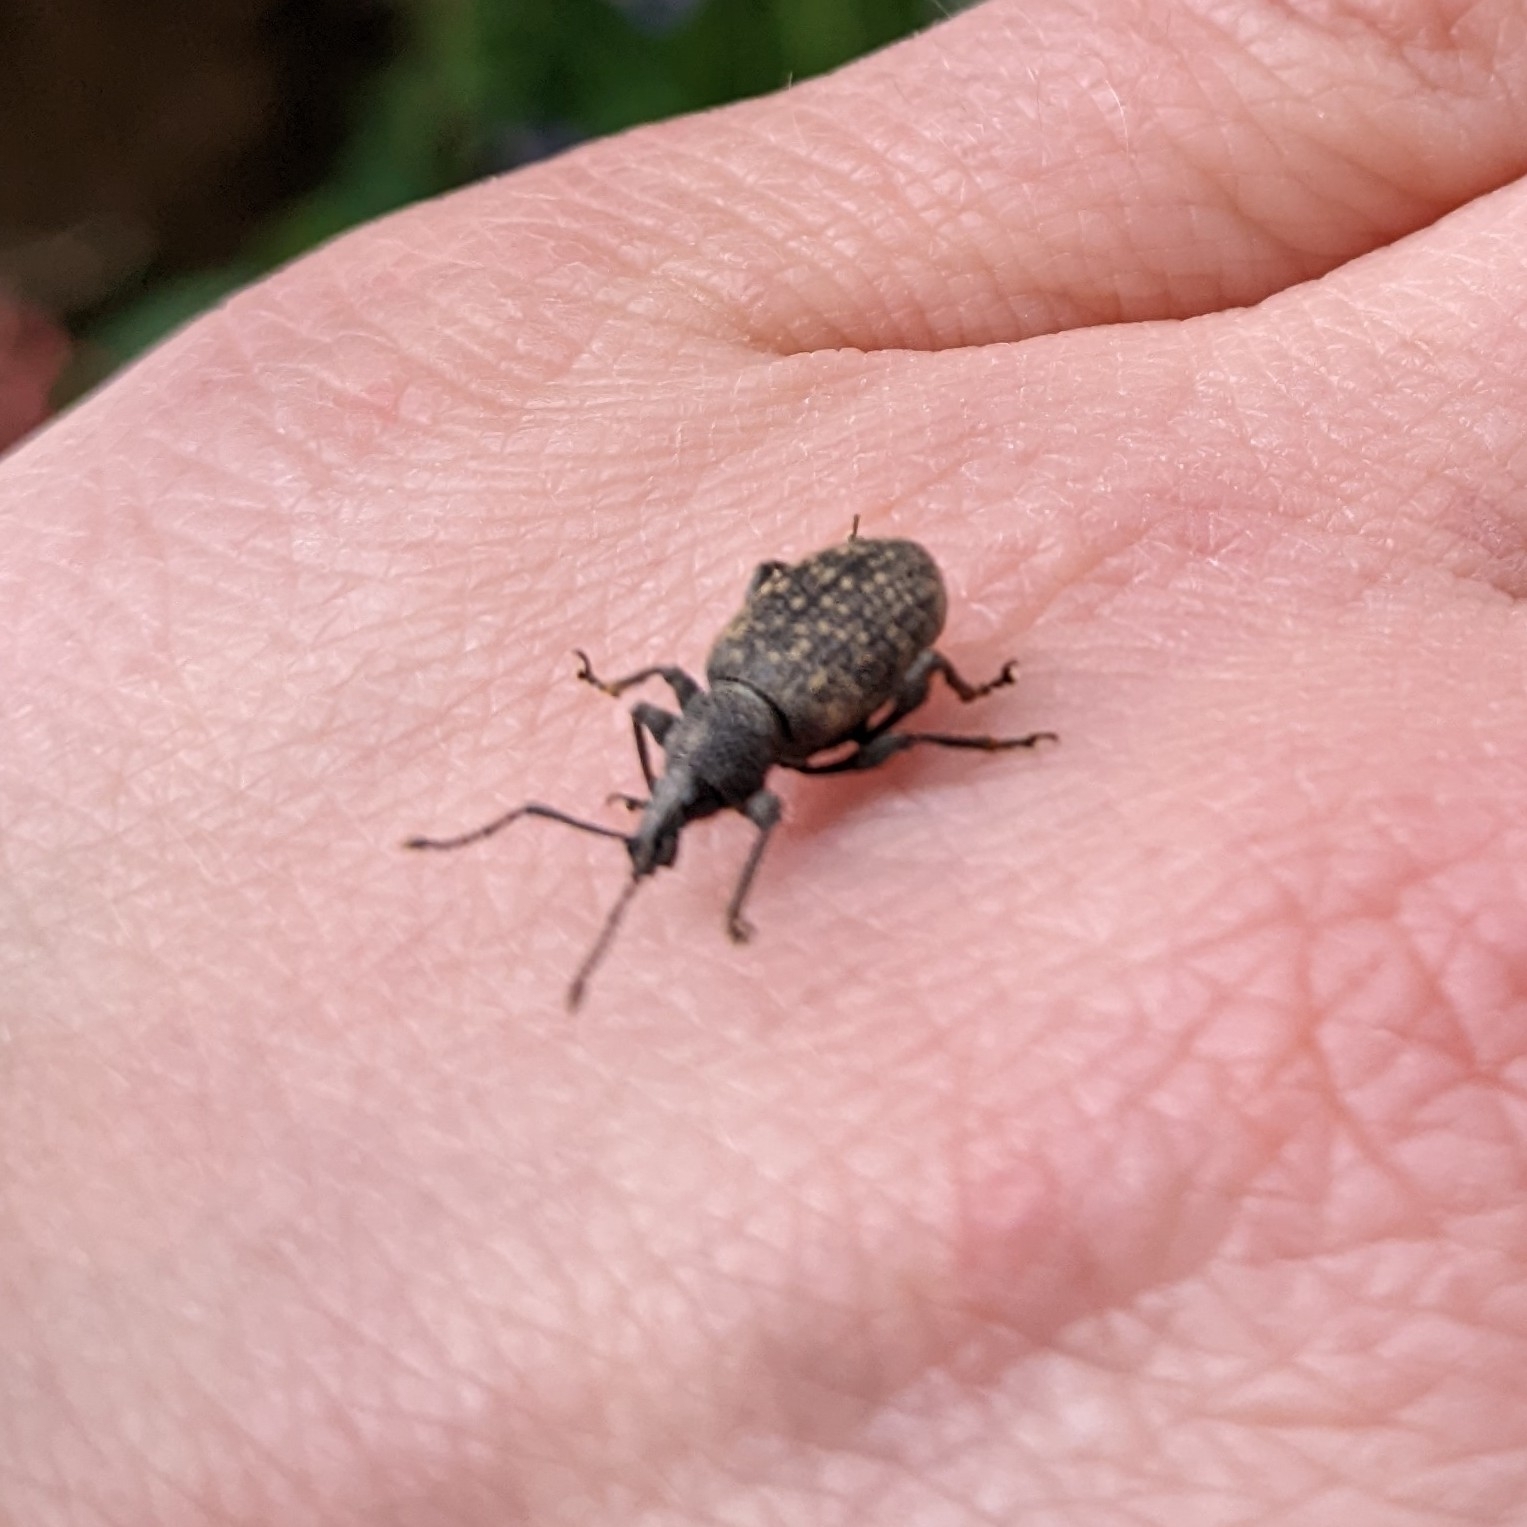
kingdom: Animalia
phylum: Arthropoda
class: Insecta
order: Coleoptera
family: Curculionidae
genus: Otiorhynchus
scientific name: Otiorhynchus sulcatus
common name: Black vine weevil
